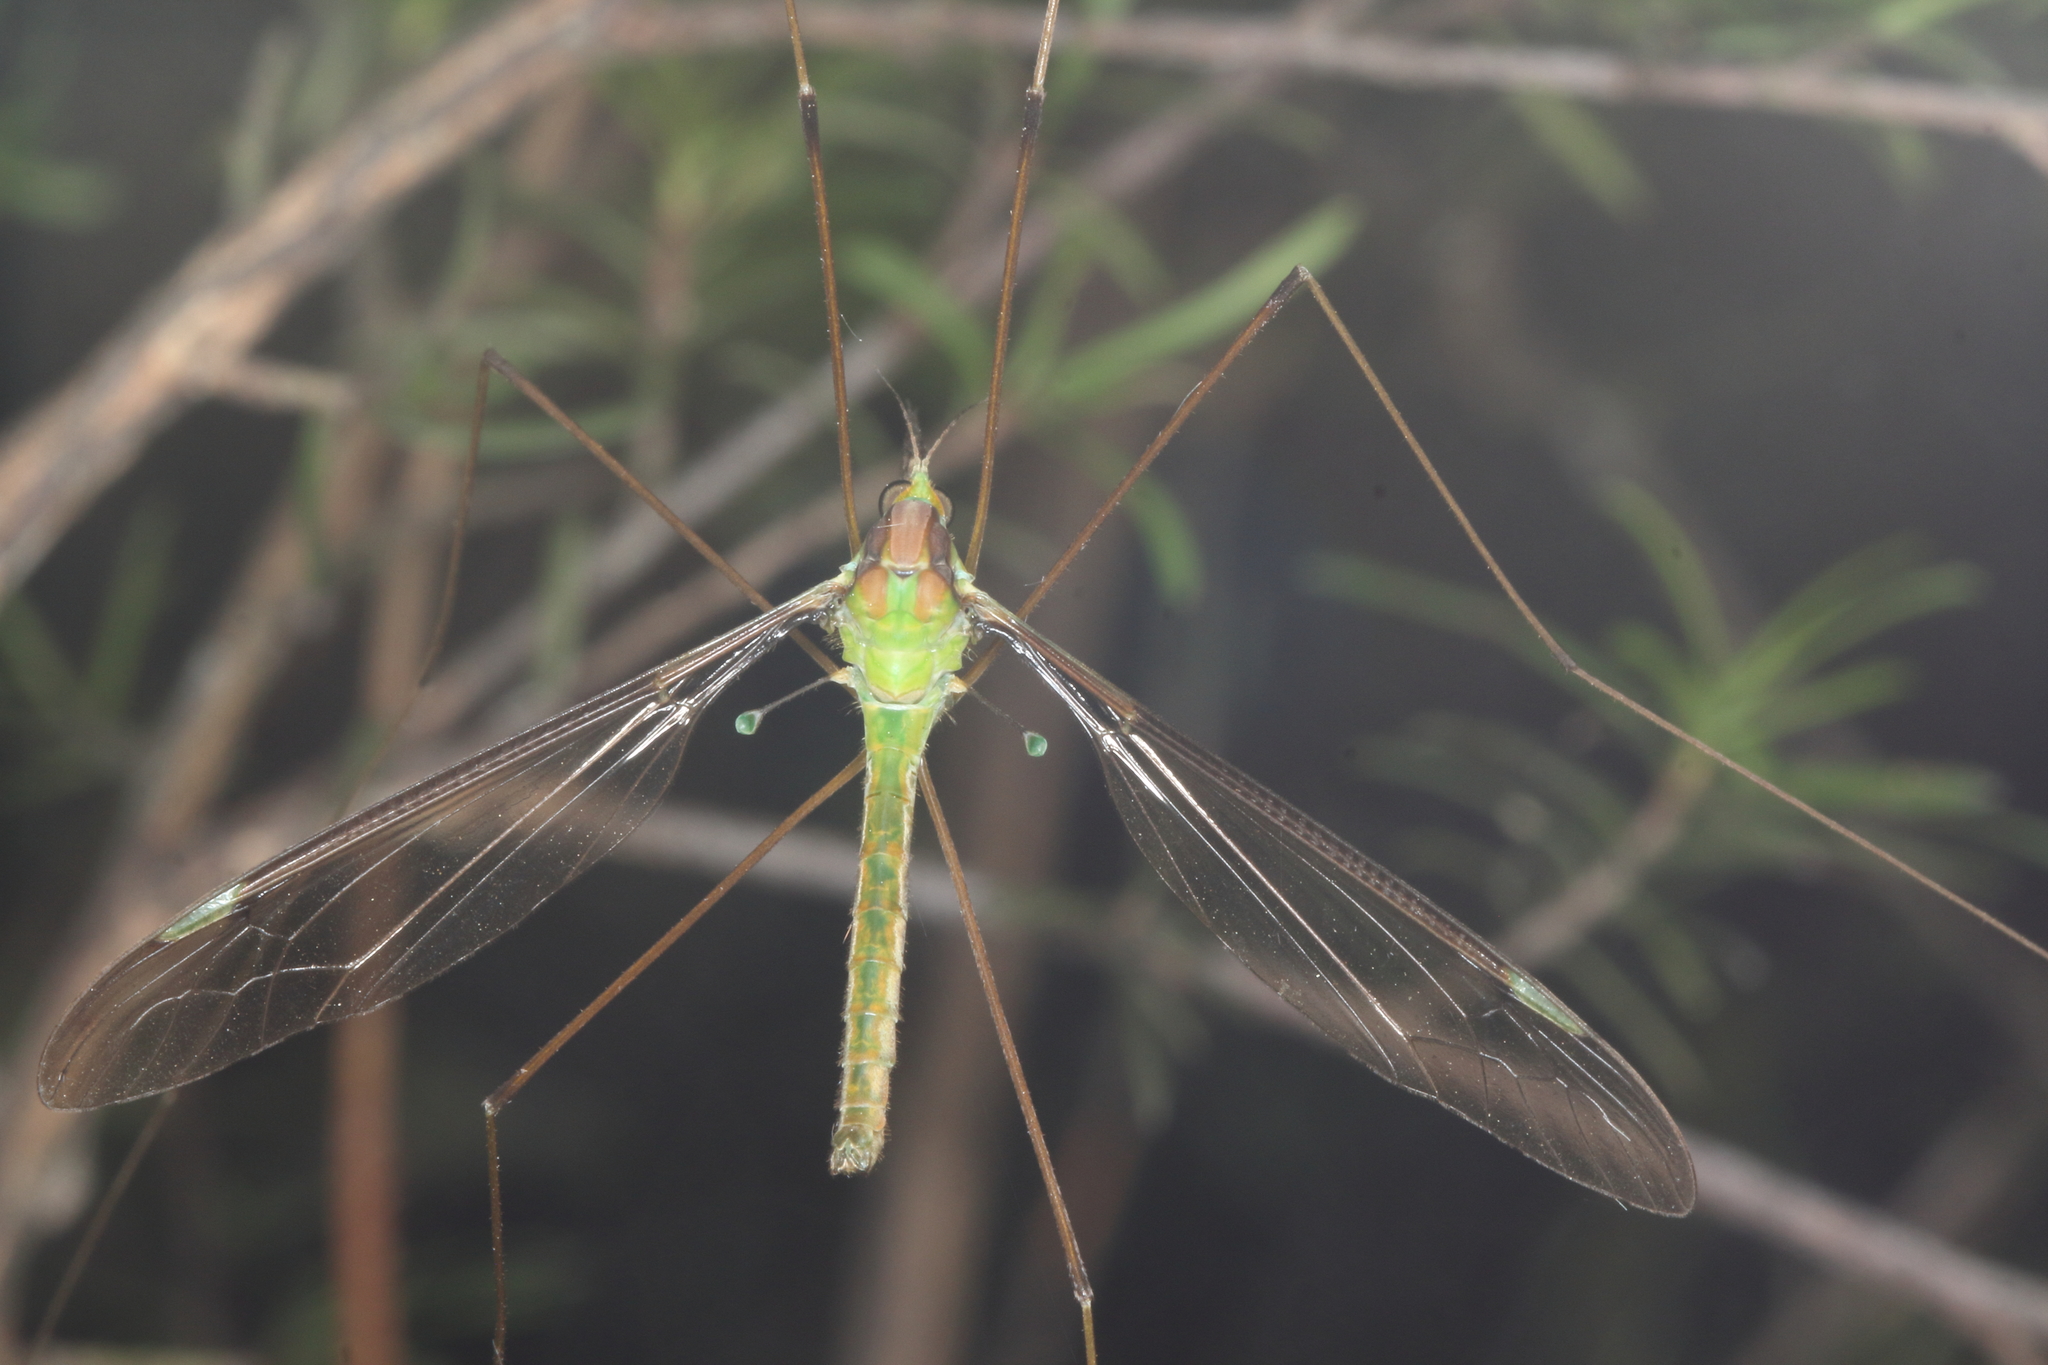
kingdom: Animalia
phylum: Arthropoda
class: Insecta
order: Diptera
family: Tipulidae
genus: Leptotarsus
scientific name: Leptotarsus viridis
